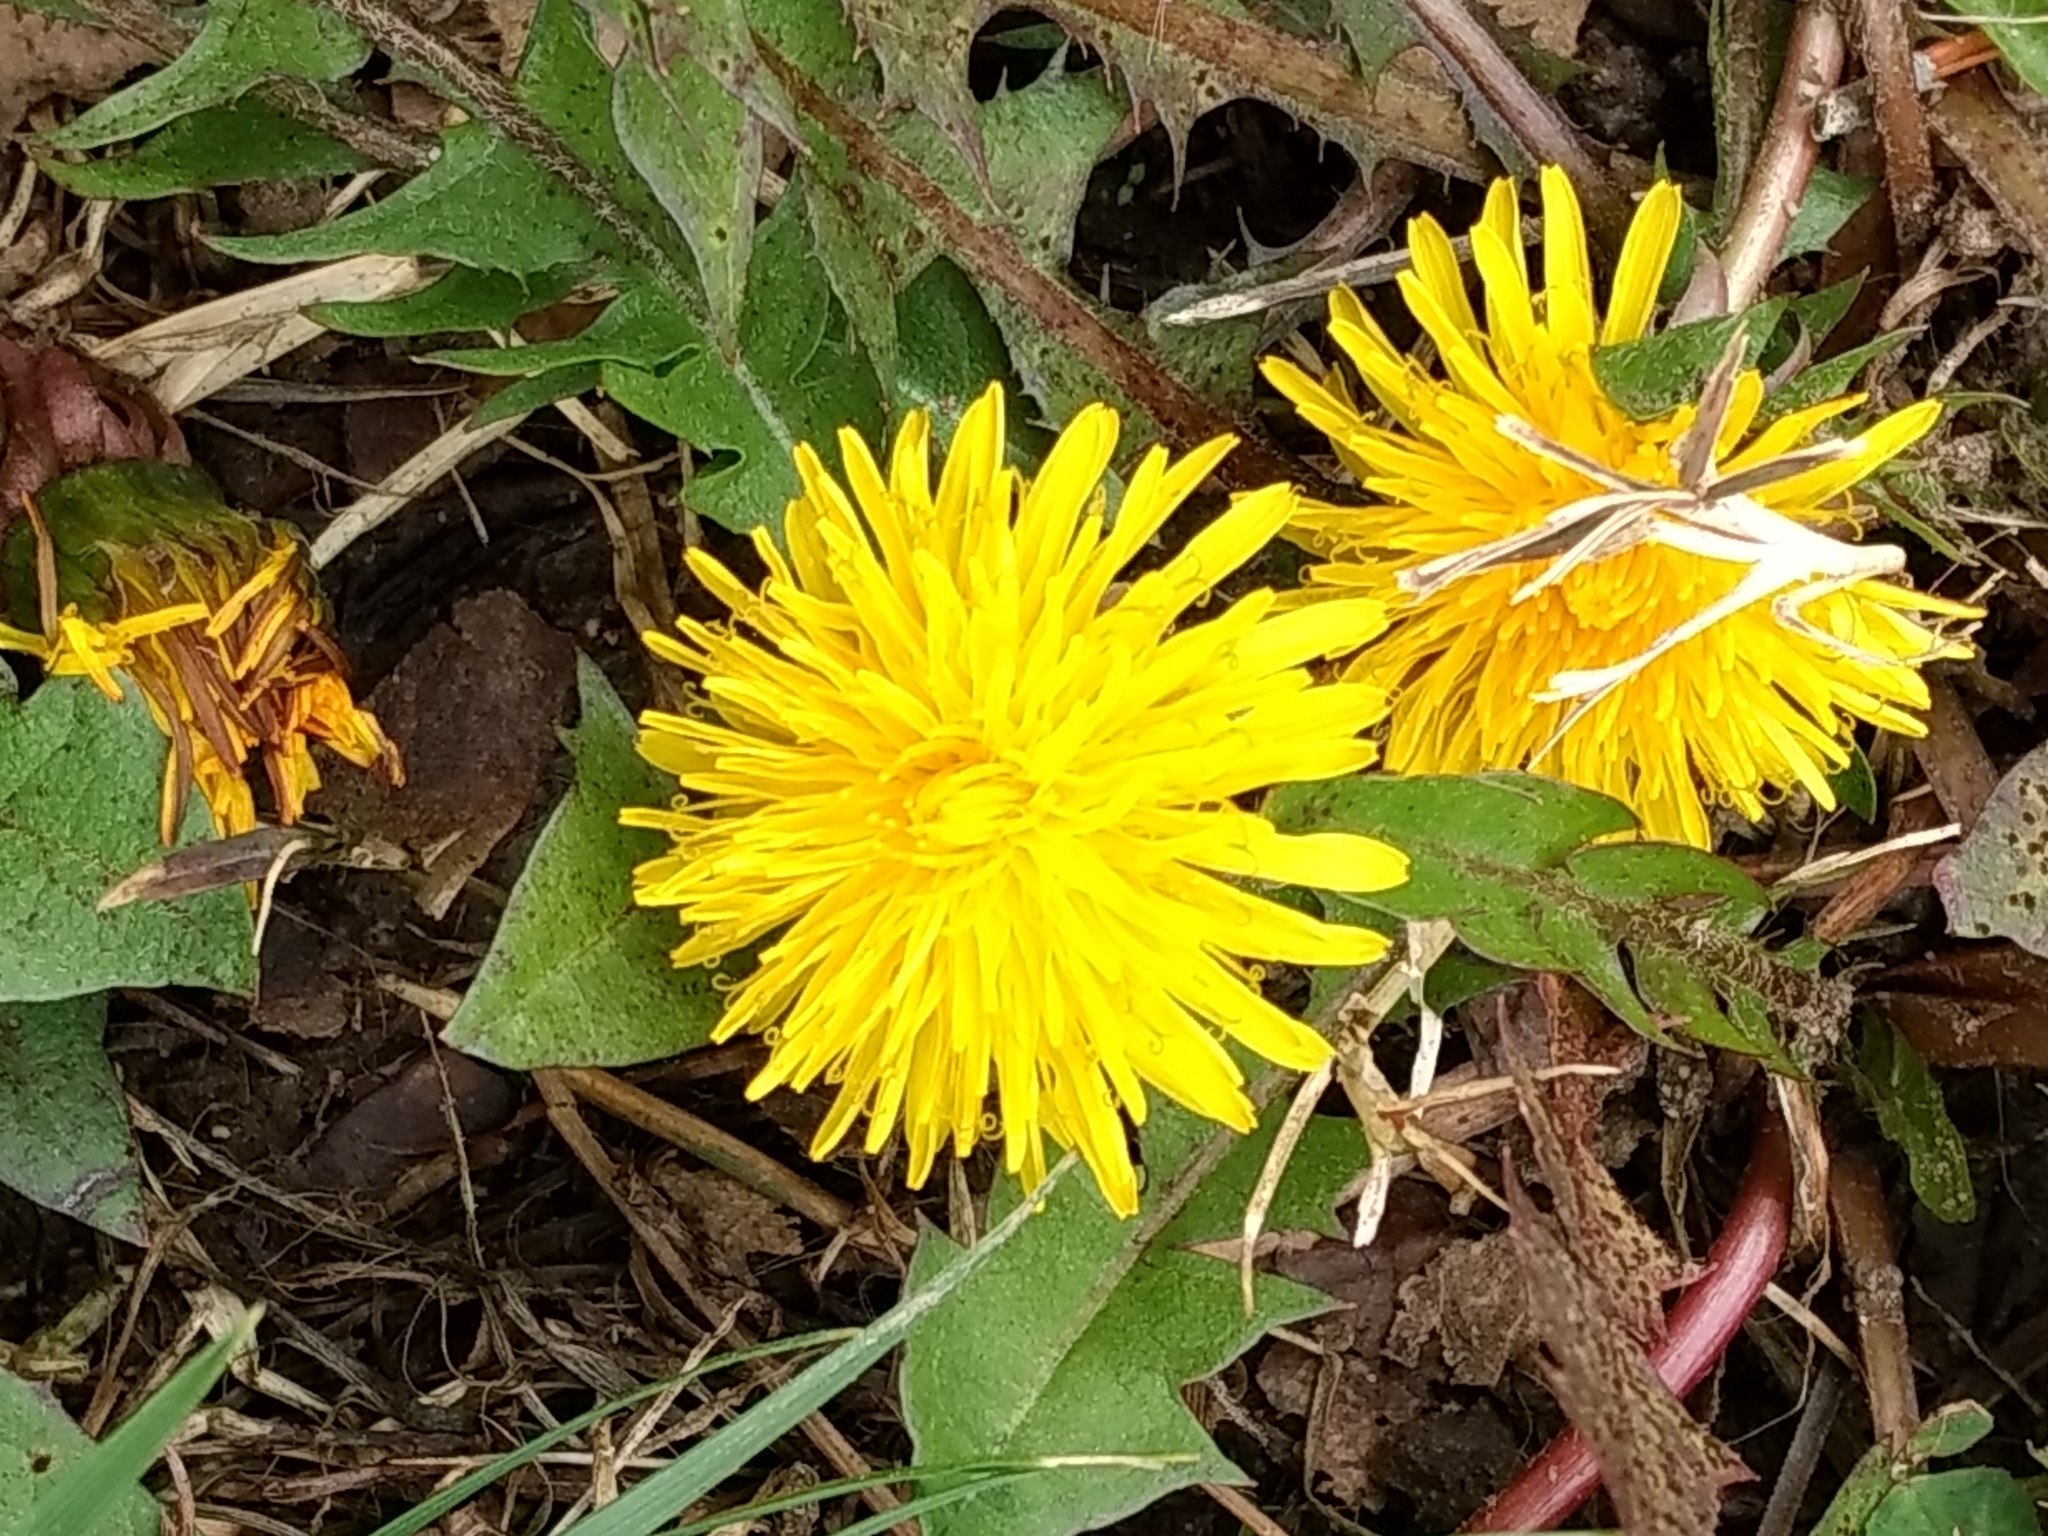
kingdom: Plantae
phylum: Tracheophyta
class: Magnoliopsida
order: Asterales
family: Asteraceae
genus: Taraxacum
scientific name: Taraxacum officinale
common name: Common dandelion
